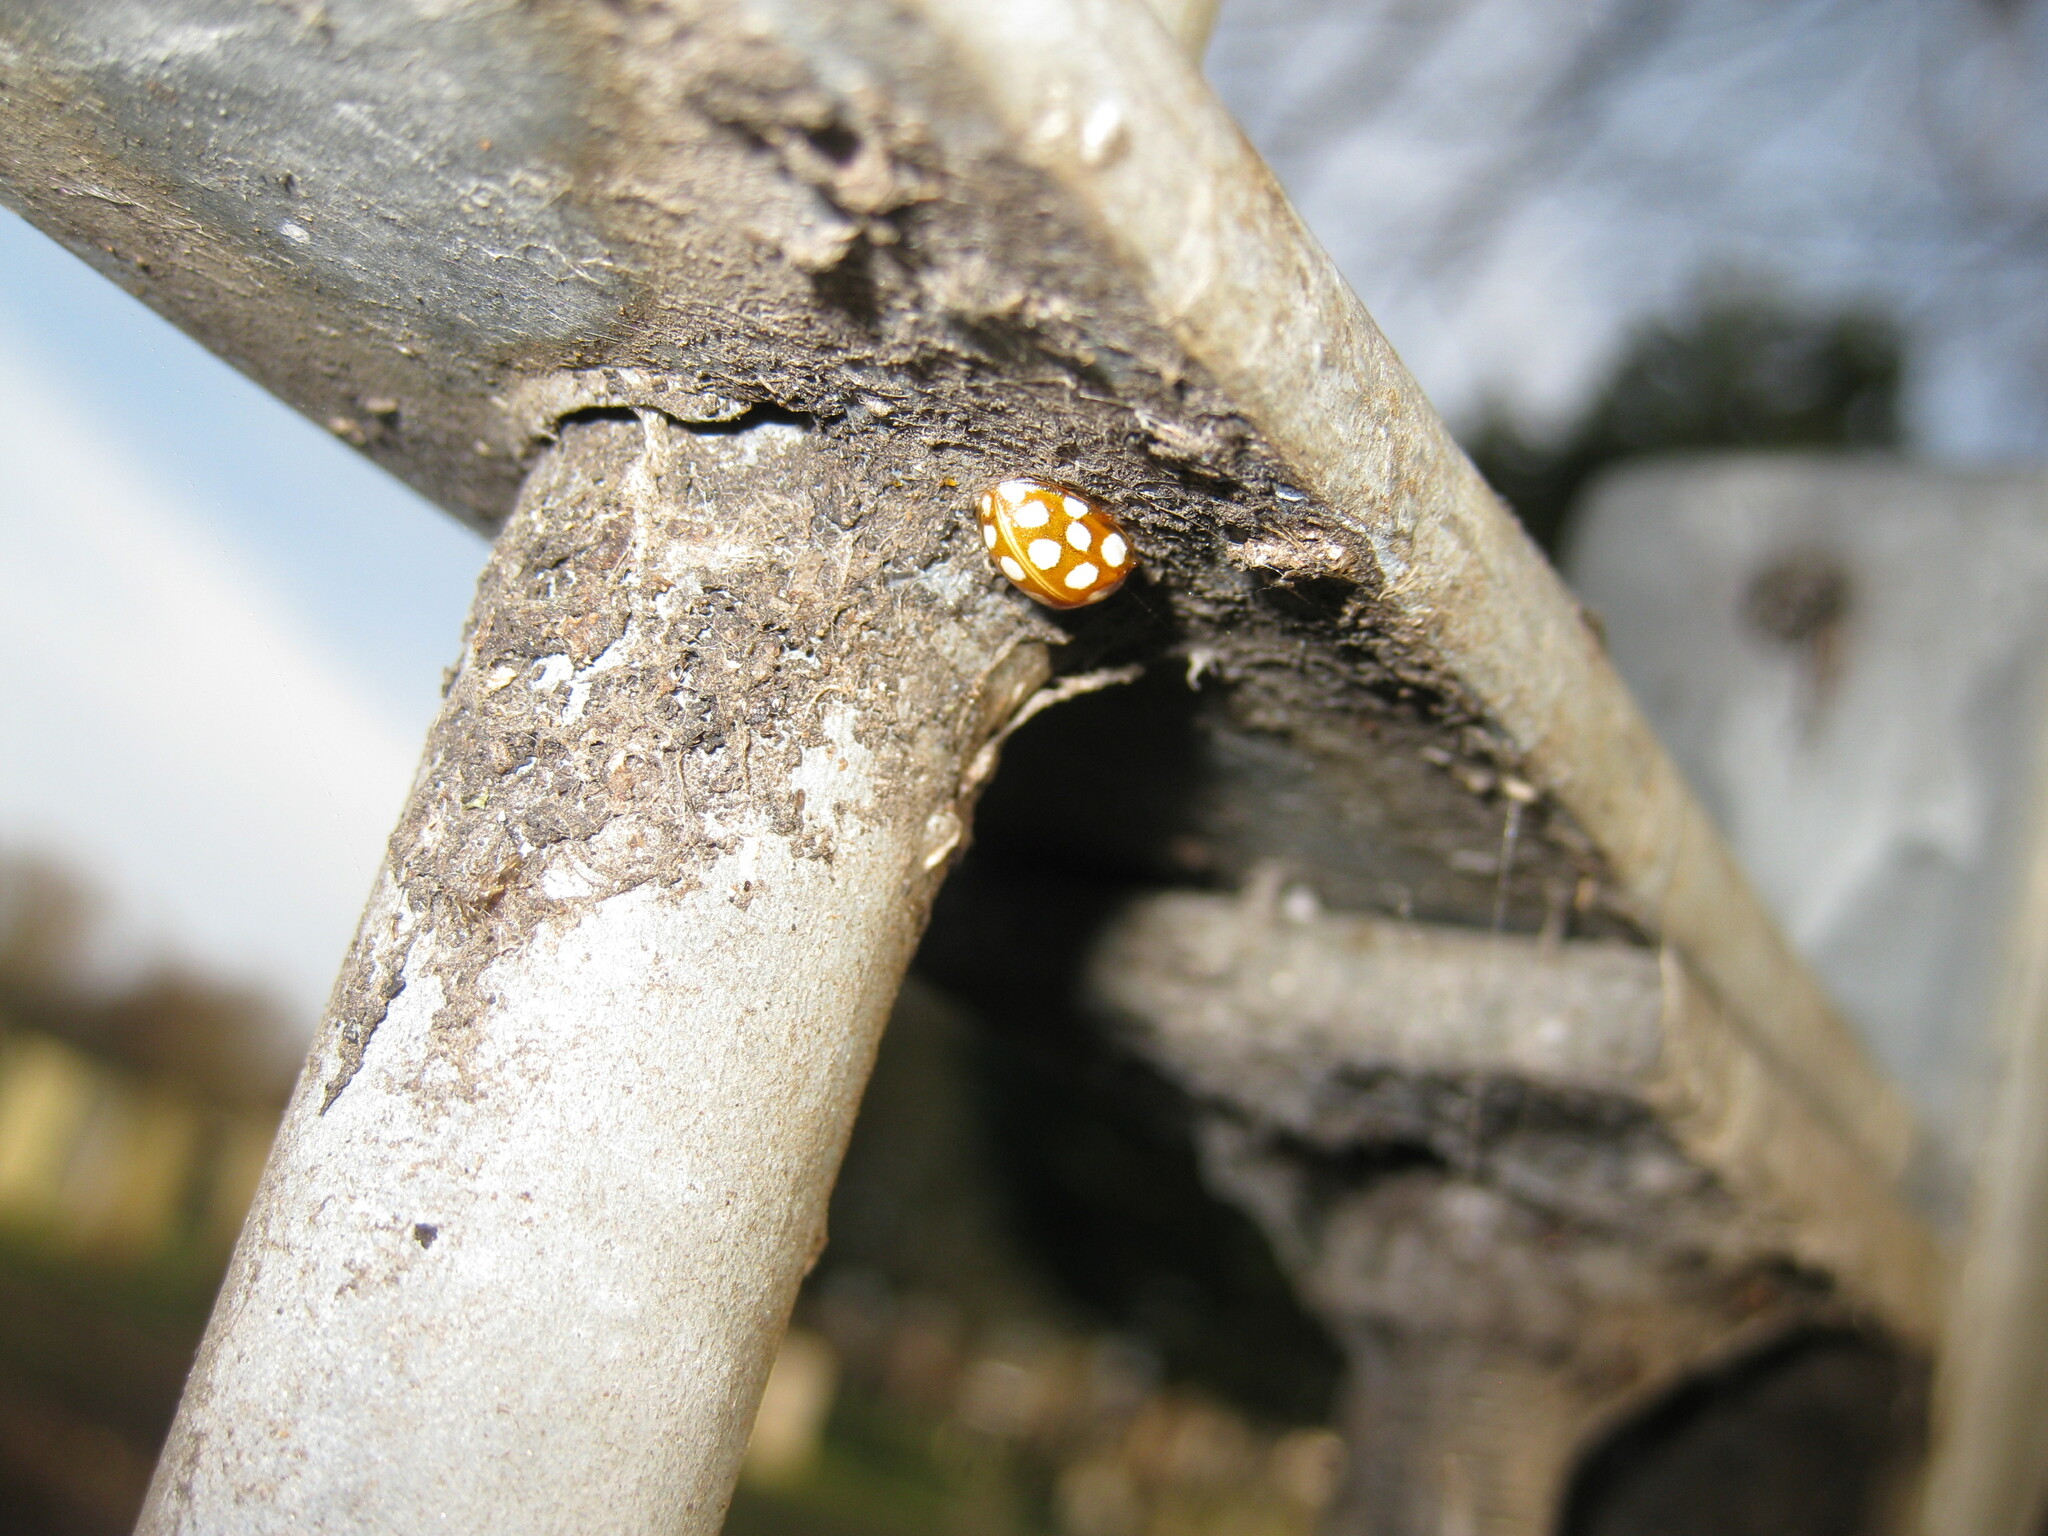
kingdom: Animalia
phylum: Arthropoda
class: Insecta
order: Coleoptera
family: Coccinellidae
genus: Halyzia
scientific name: Halyzia sedecimguttata
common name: Orange ladybird
